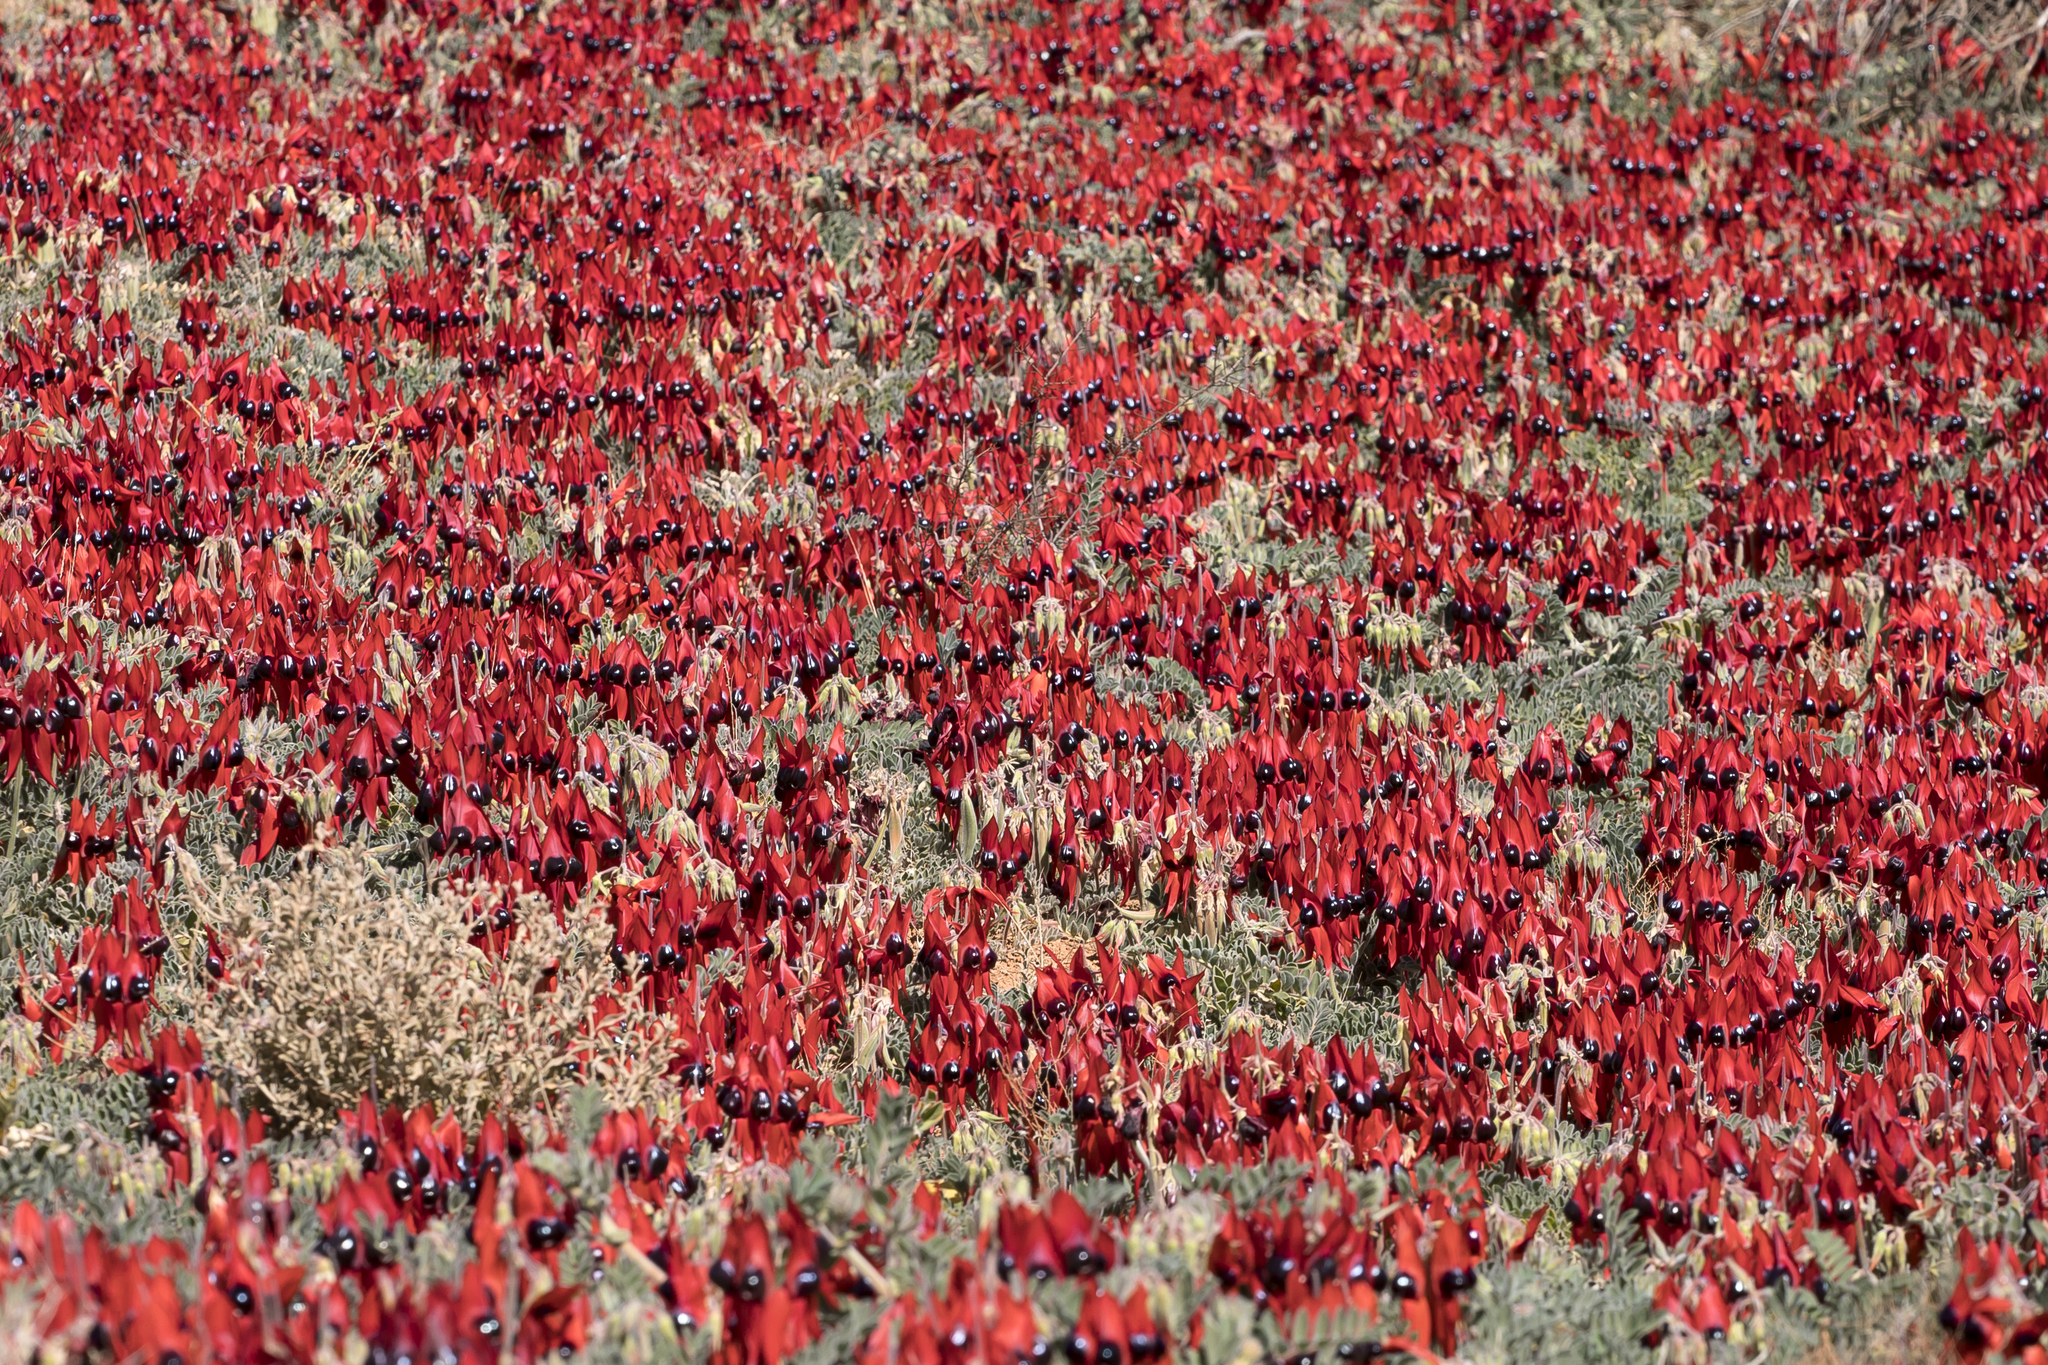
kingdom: Plantae
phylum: Tracheophyta
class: Magnoliopsida
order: Fabales
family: Fabaceae
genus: Swainsona
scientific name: Swainsona formosa
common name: Sturt's desert-pea
